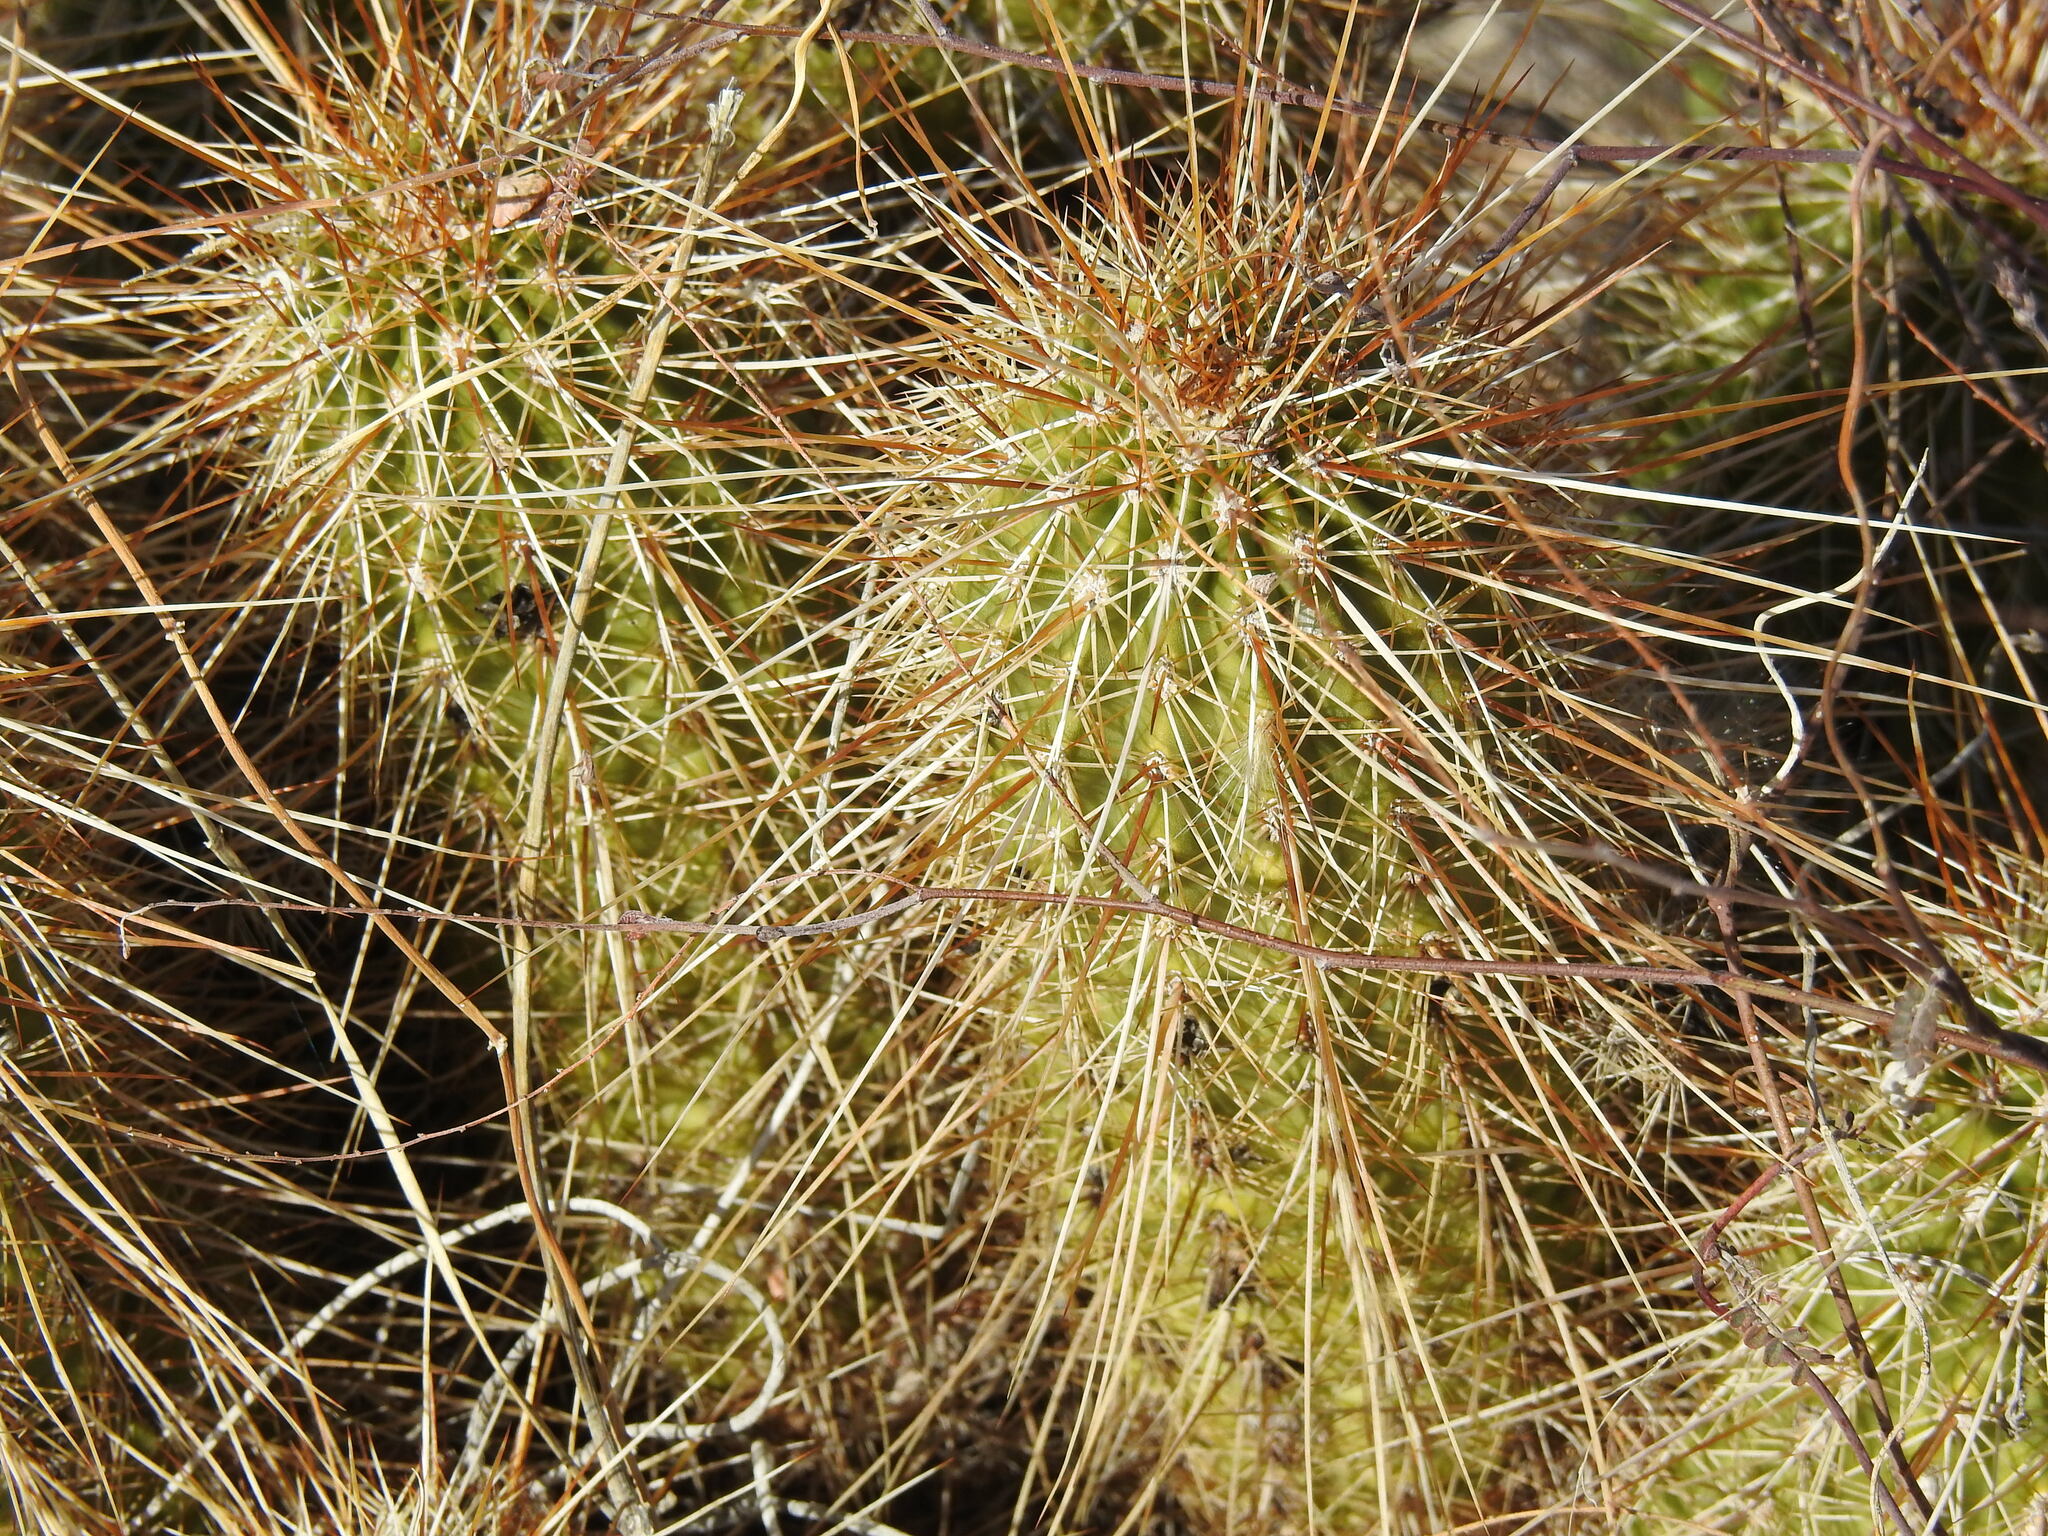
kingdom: Plantae
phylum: Tracheophyta
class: Magnoliopsida
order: Caryophyllales
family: Cactaceae
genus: Echinocereus
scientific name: Echinocereus bonkerae
